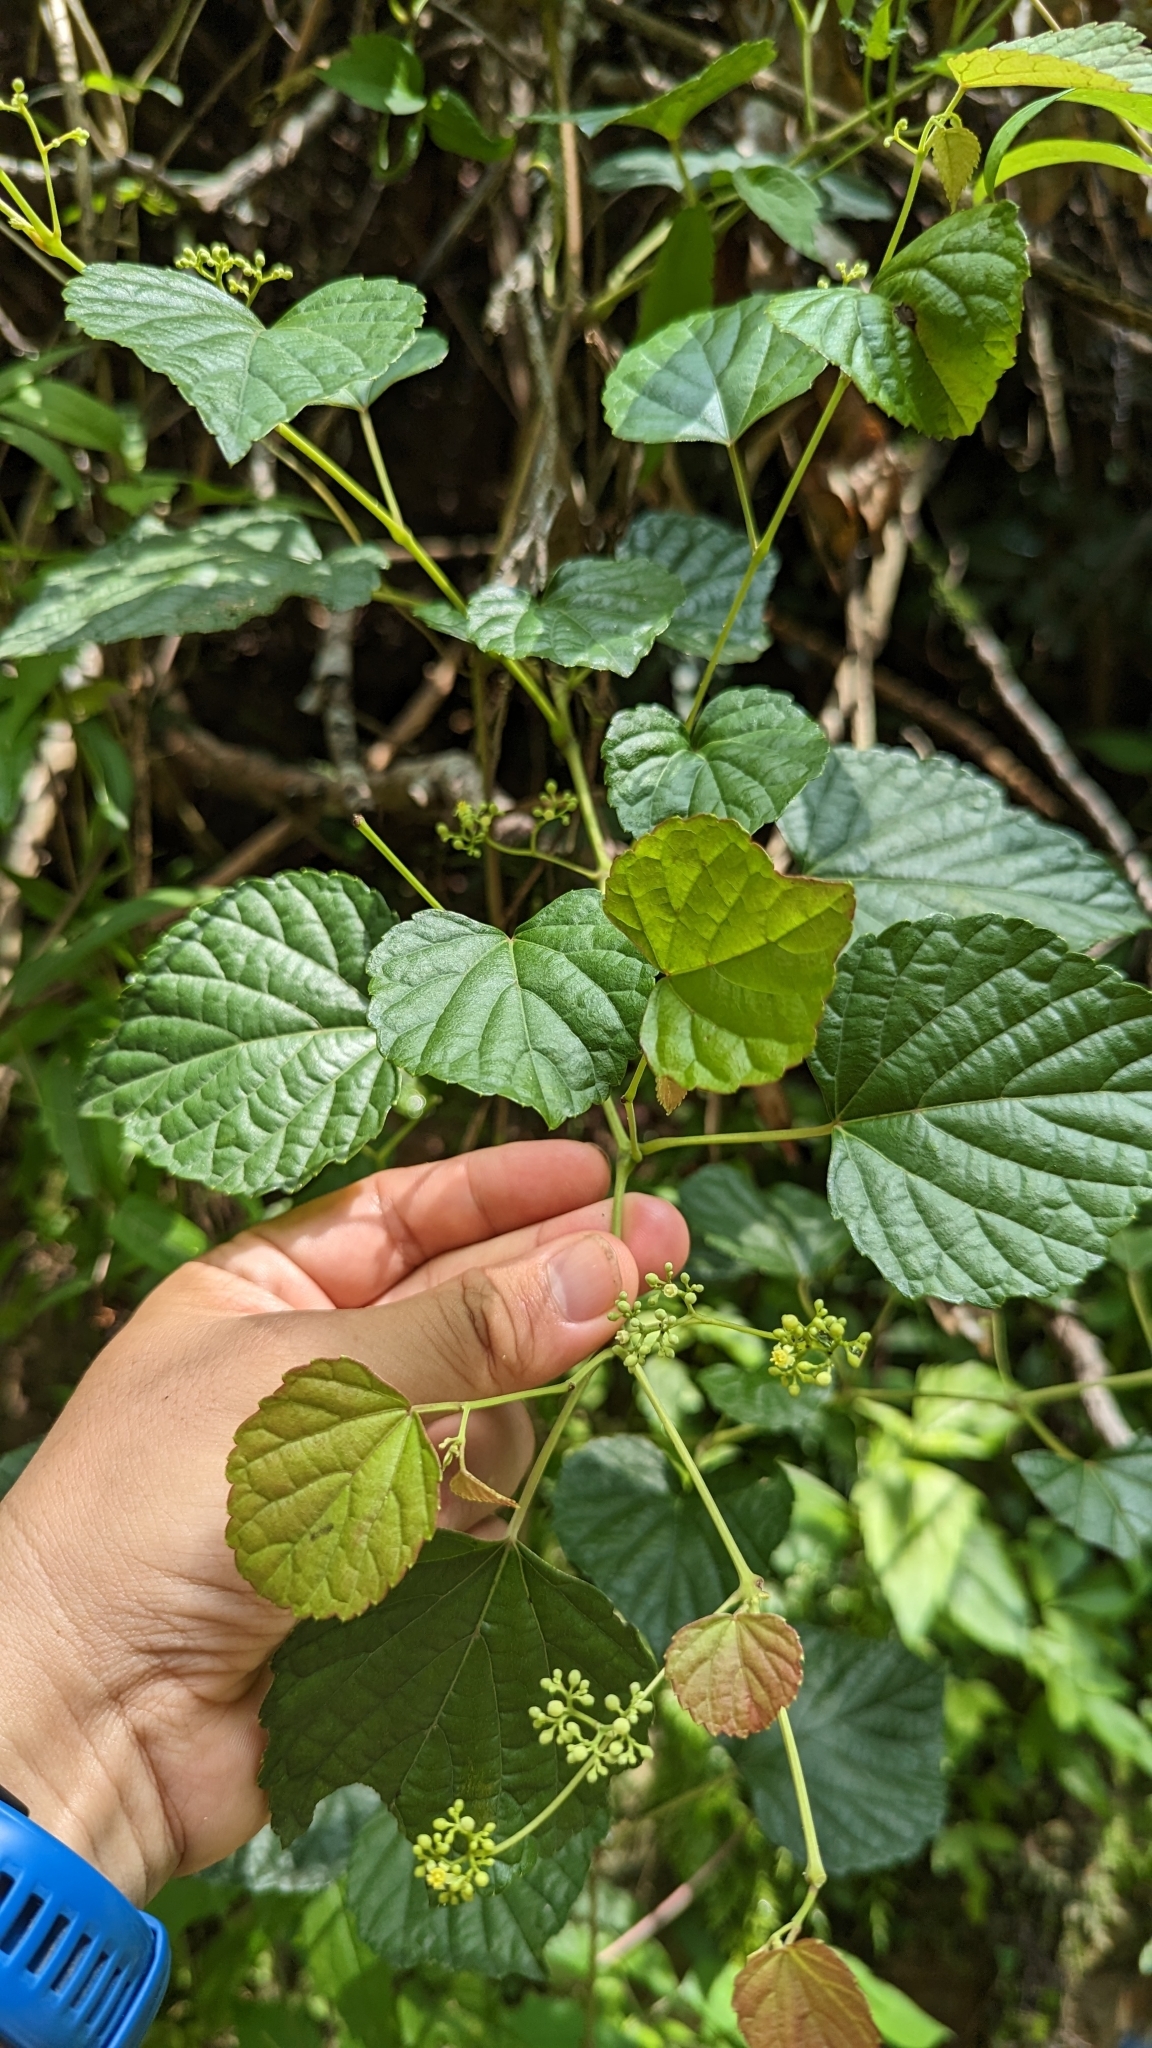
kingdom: Plantae
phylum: Tracheophyta
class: Magnoliopsida
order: Vitales
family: Vitaceae
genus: Ampelopsis
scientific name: Ampelopsis glandulosa
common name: Amur peppervine
